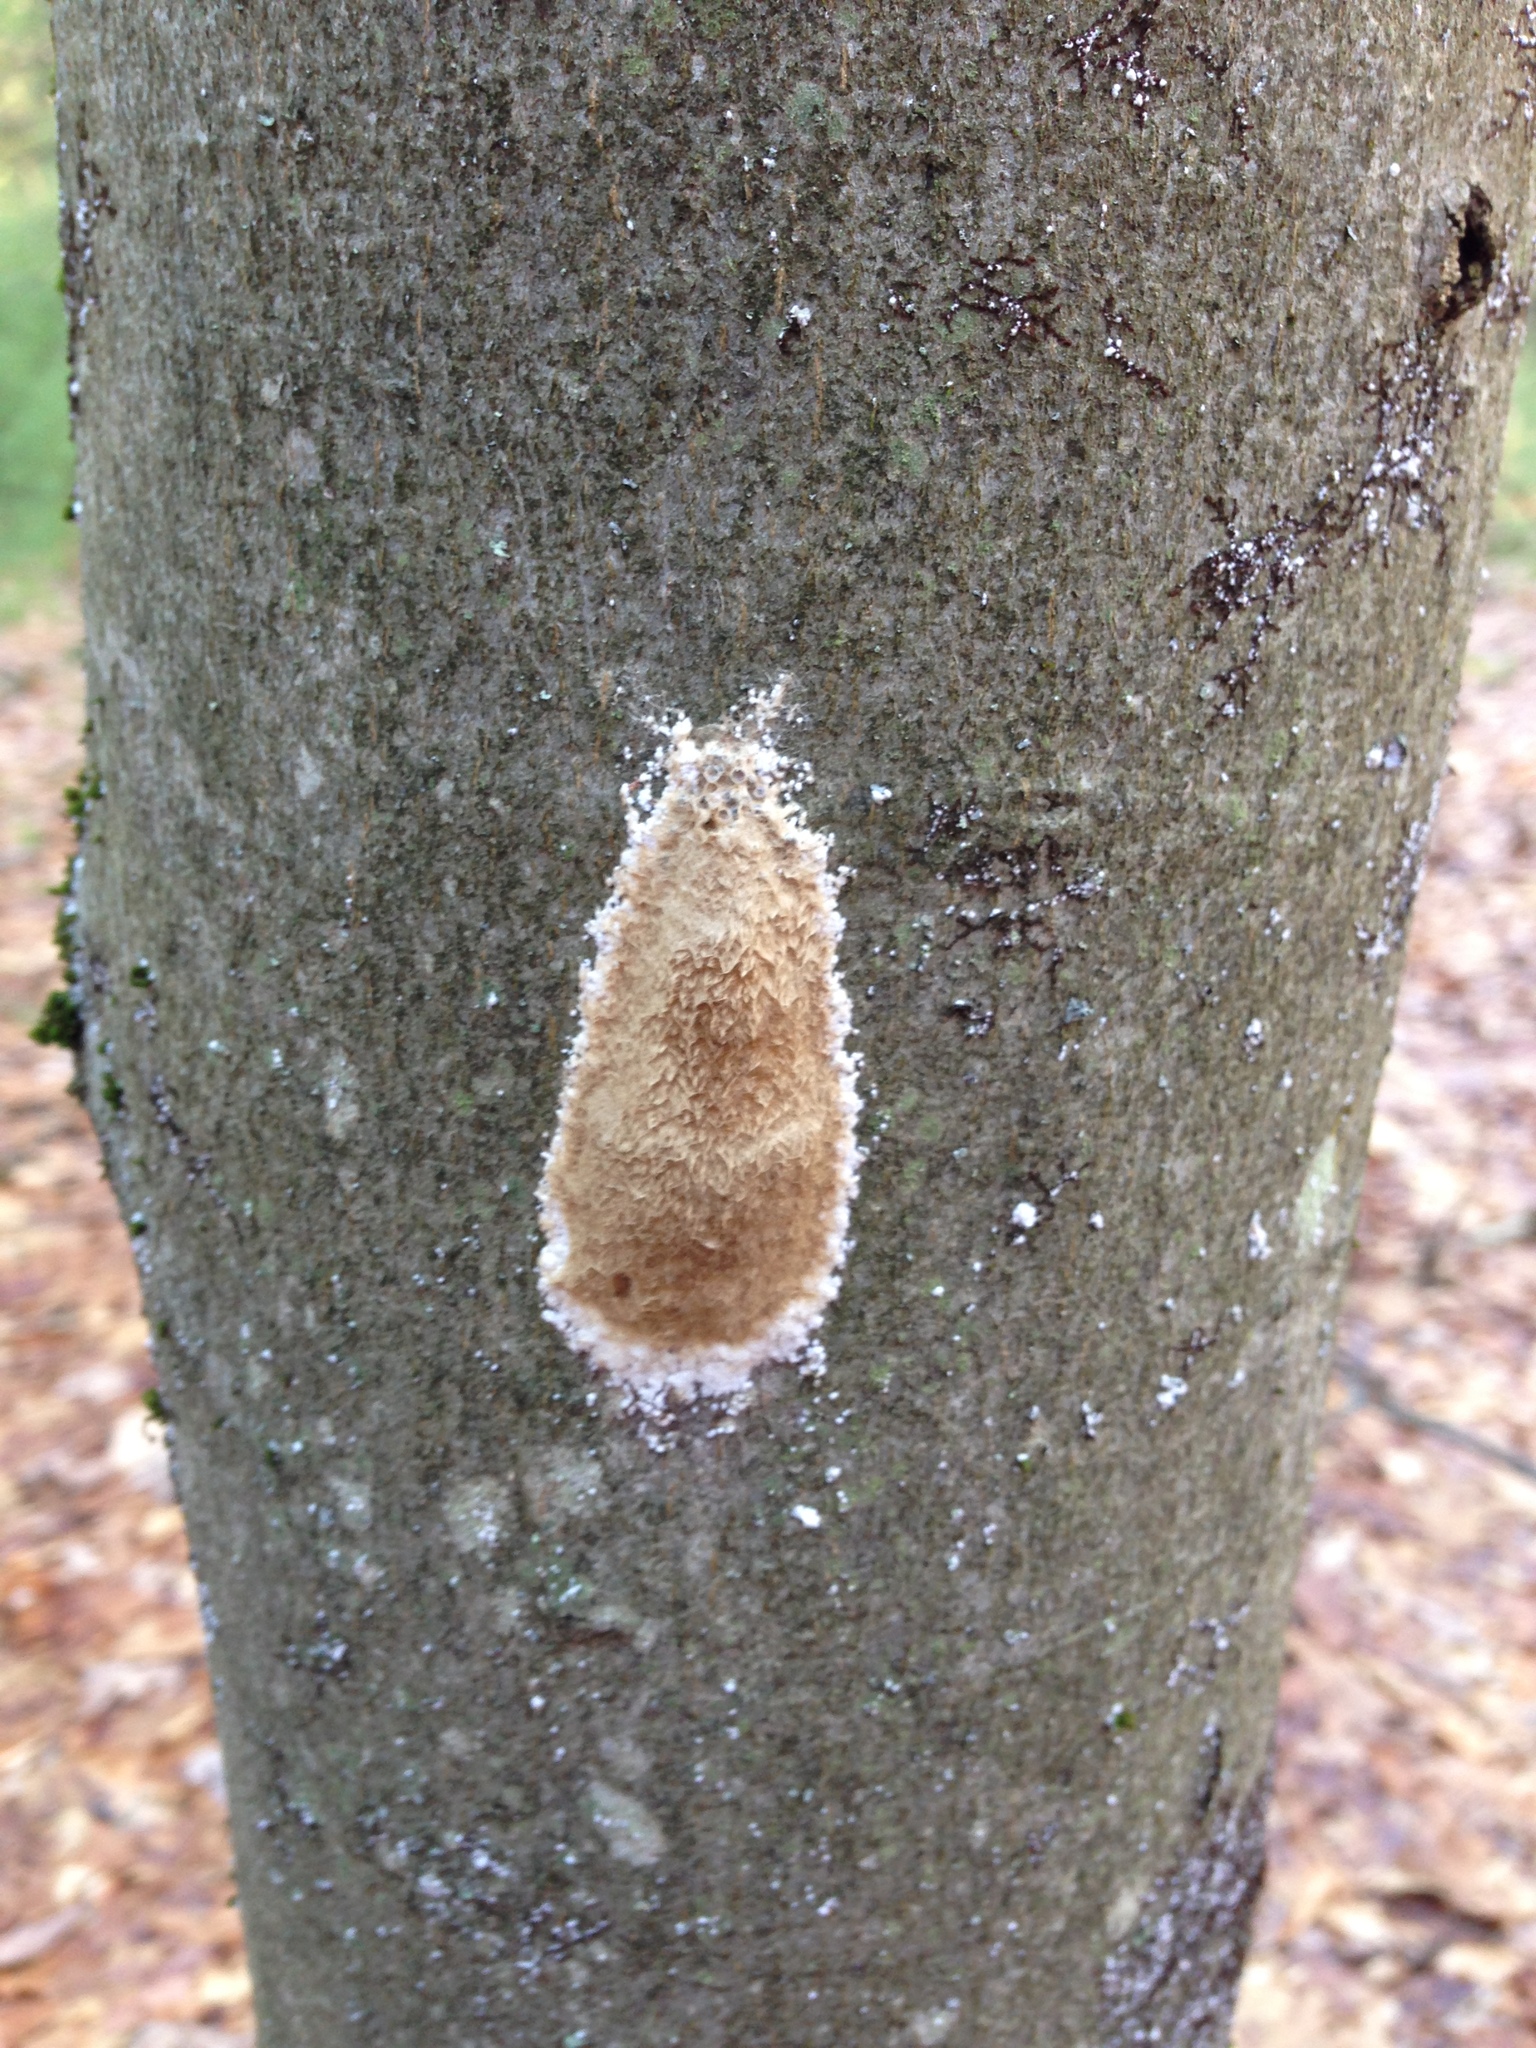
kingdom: Animalia
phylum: Arthropoda
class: Insecta
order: Lepidoptera
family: Erebidae
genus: Lymantria
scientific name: Lymantria dispar
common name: Gypsy moth
